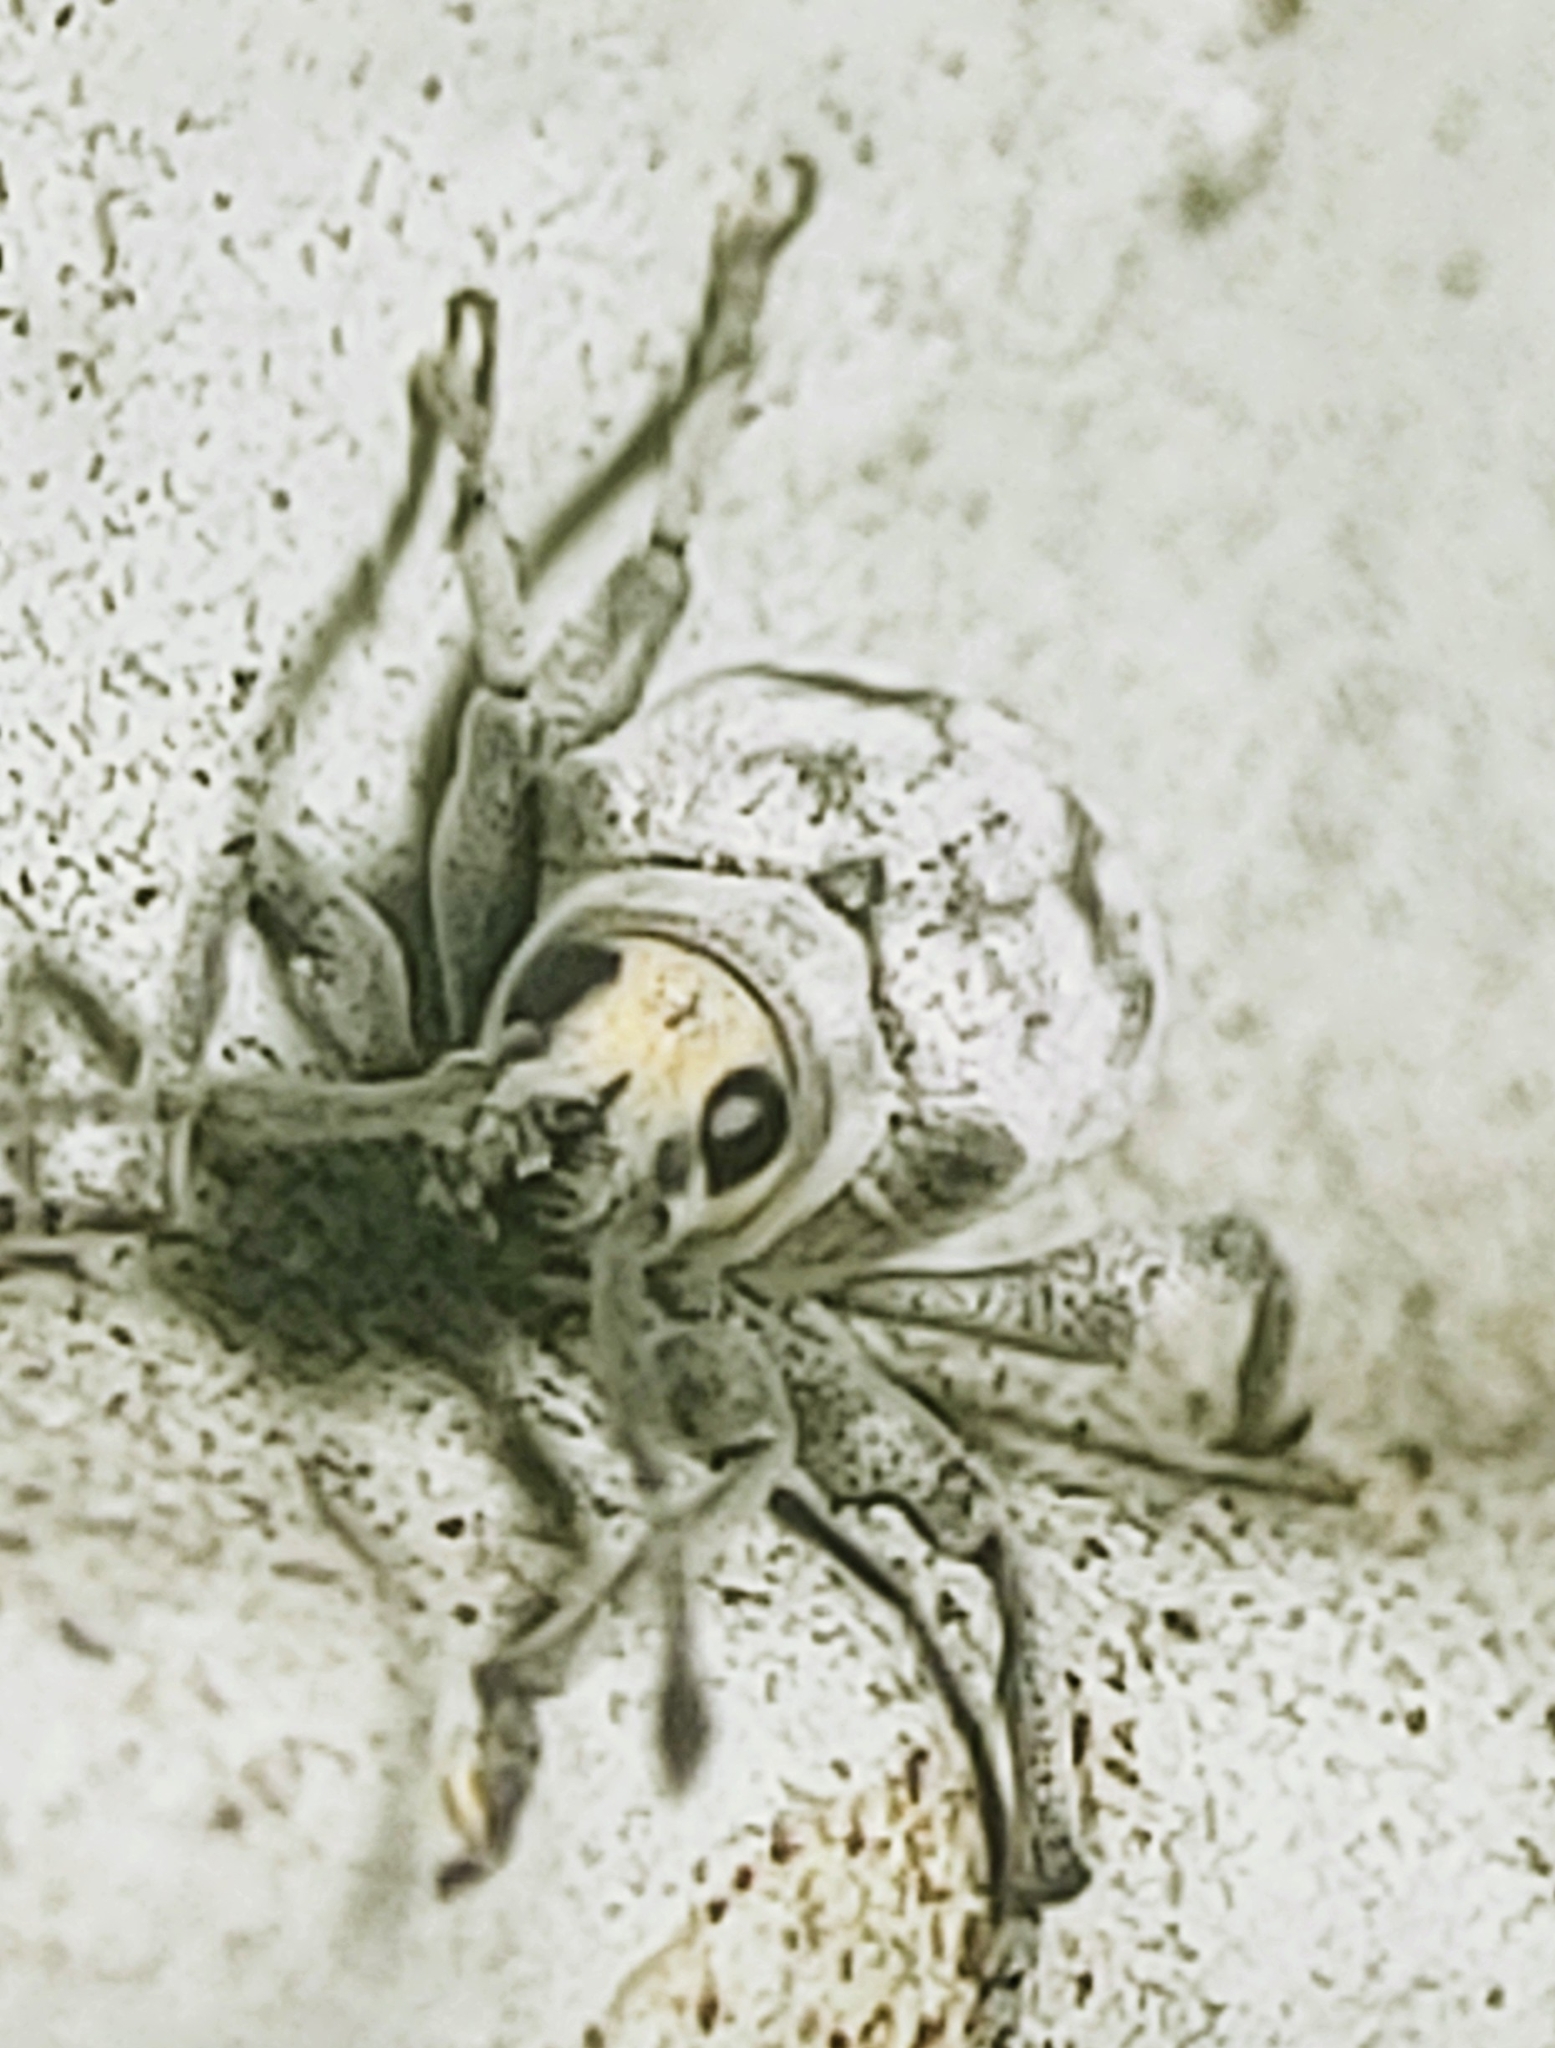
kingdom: Animalia
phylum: Arthropoda
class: Insecta
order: Coleoptera
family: Curculionidae
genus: Myllocerus
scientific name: Myllocerus undecimpustulatus
